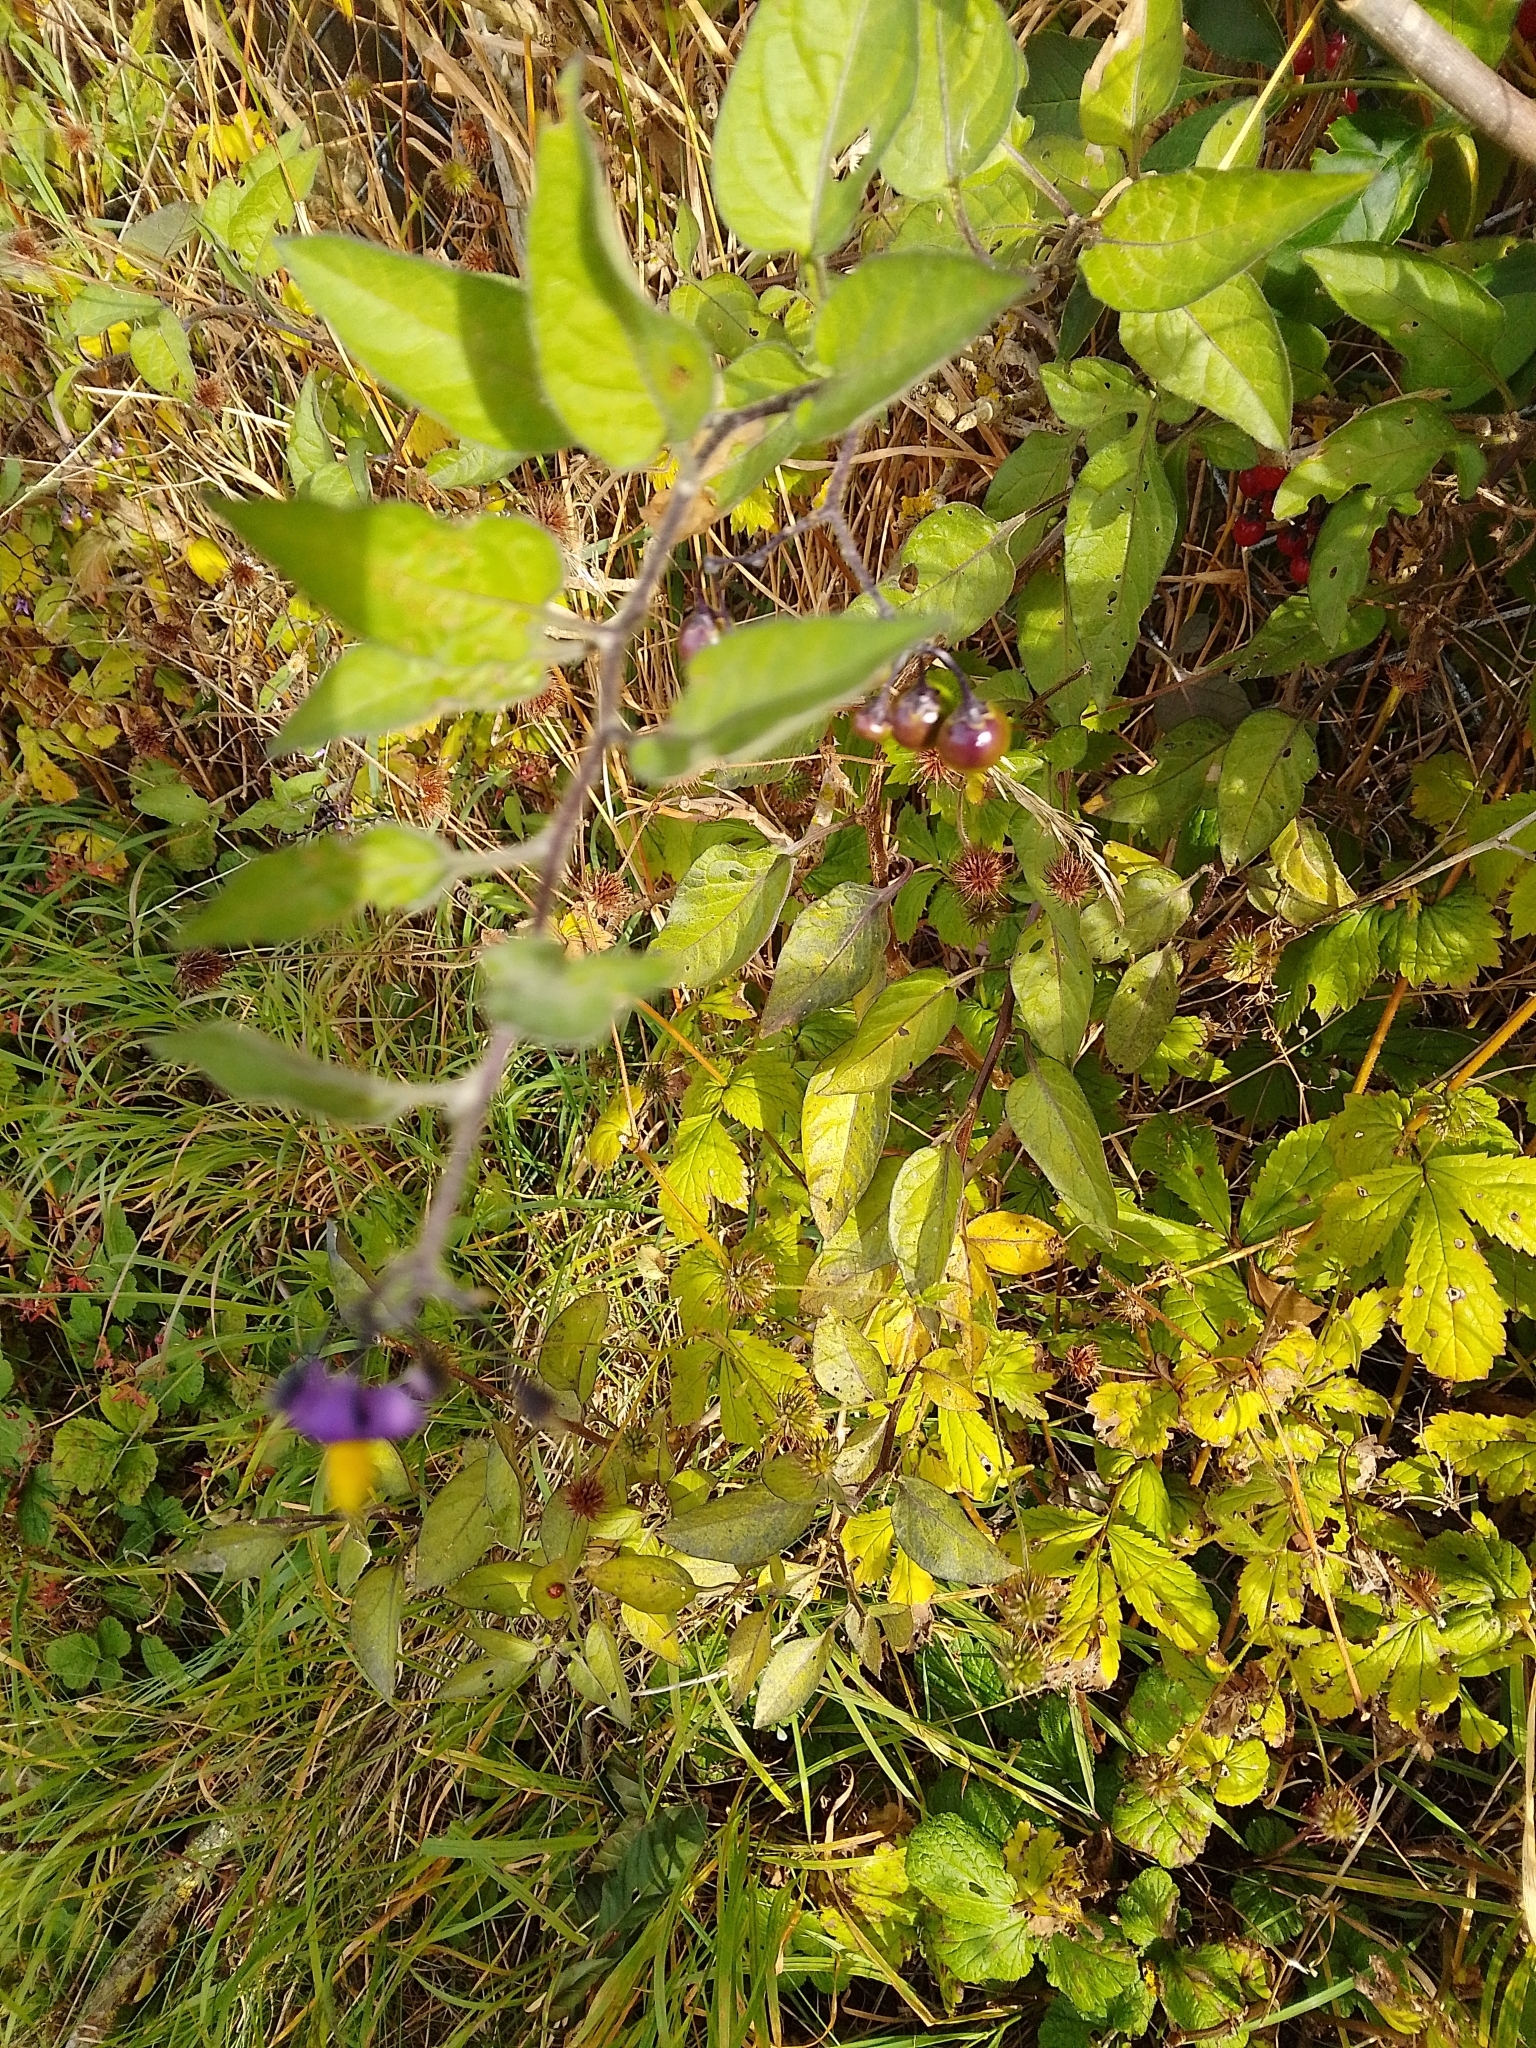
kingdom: Plantae
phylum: Tracheophyta
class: Magnoliopsida
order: Solanales
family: Solanaceae
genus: Solanum
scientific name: Solanum dulcamara
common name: Climbing nightshade
